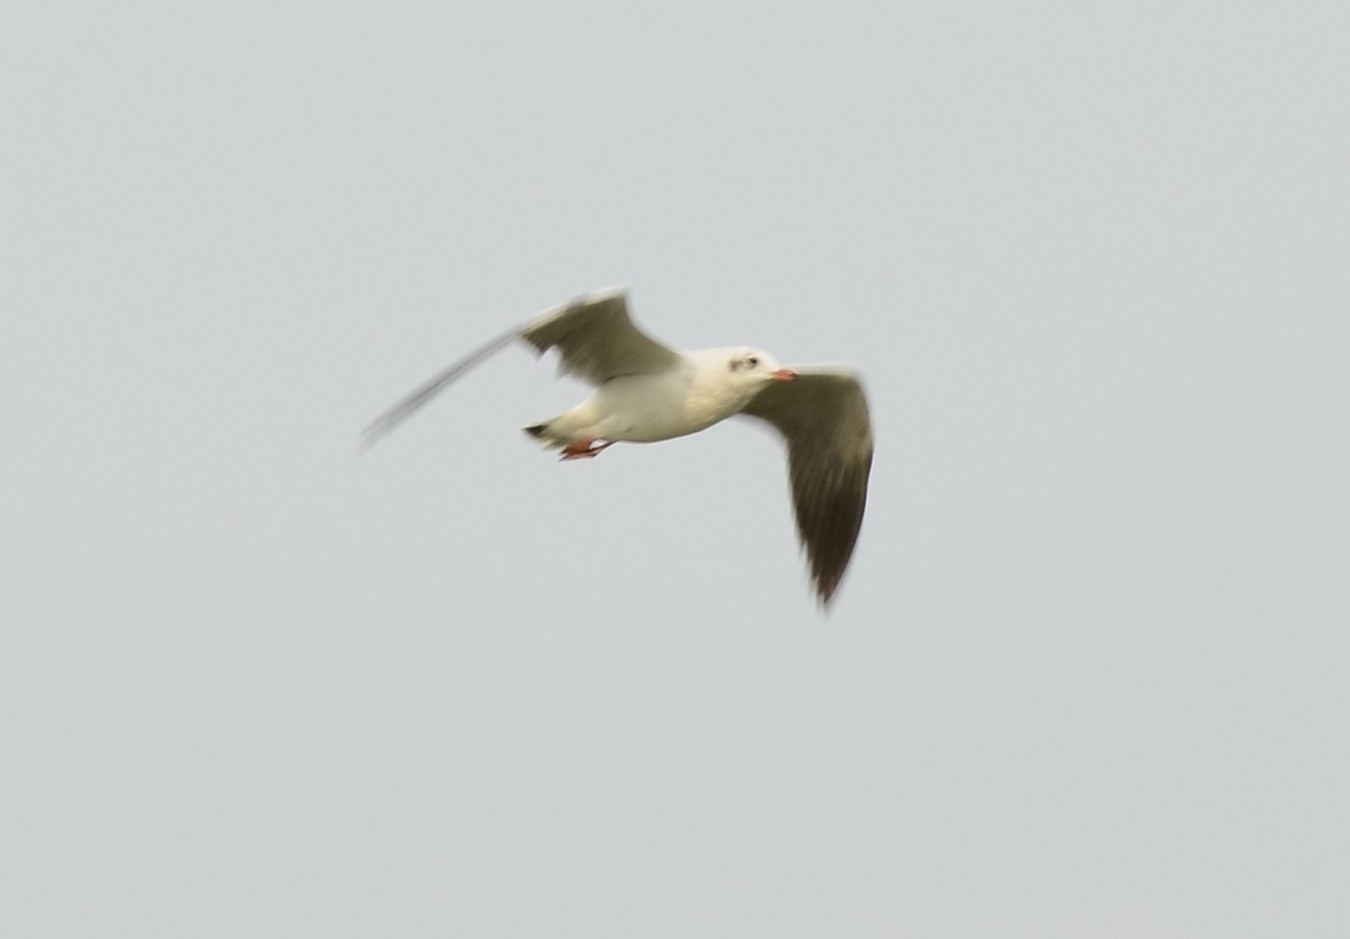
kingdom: Animalia
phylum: Chordata
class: Aves
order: Charadriiformes
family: Laridae
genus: Chroicocephalus
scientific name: Chroicocephalus brunnicephalus
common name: Brown-headed gull
